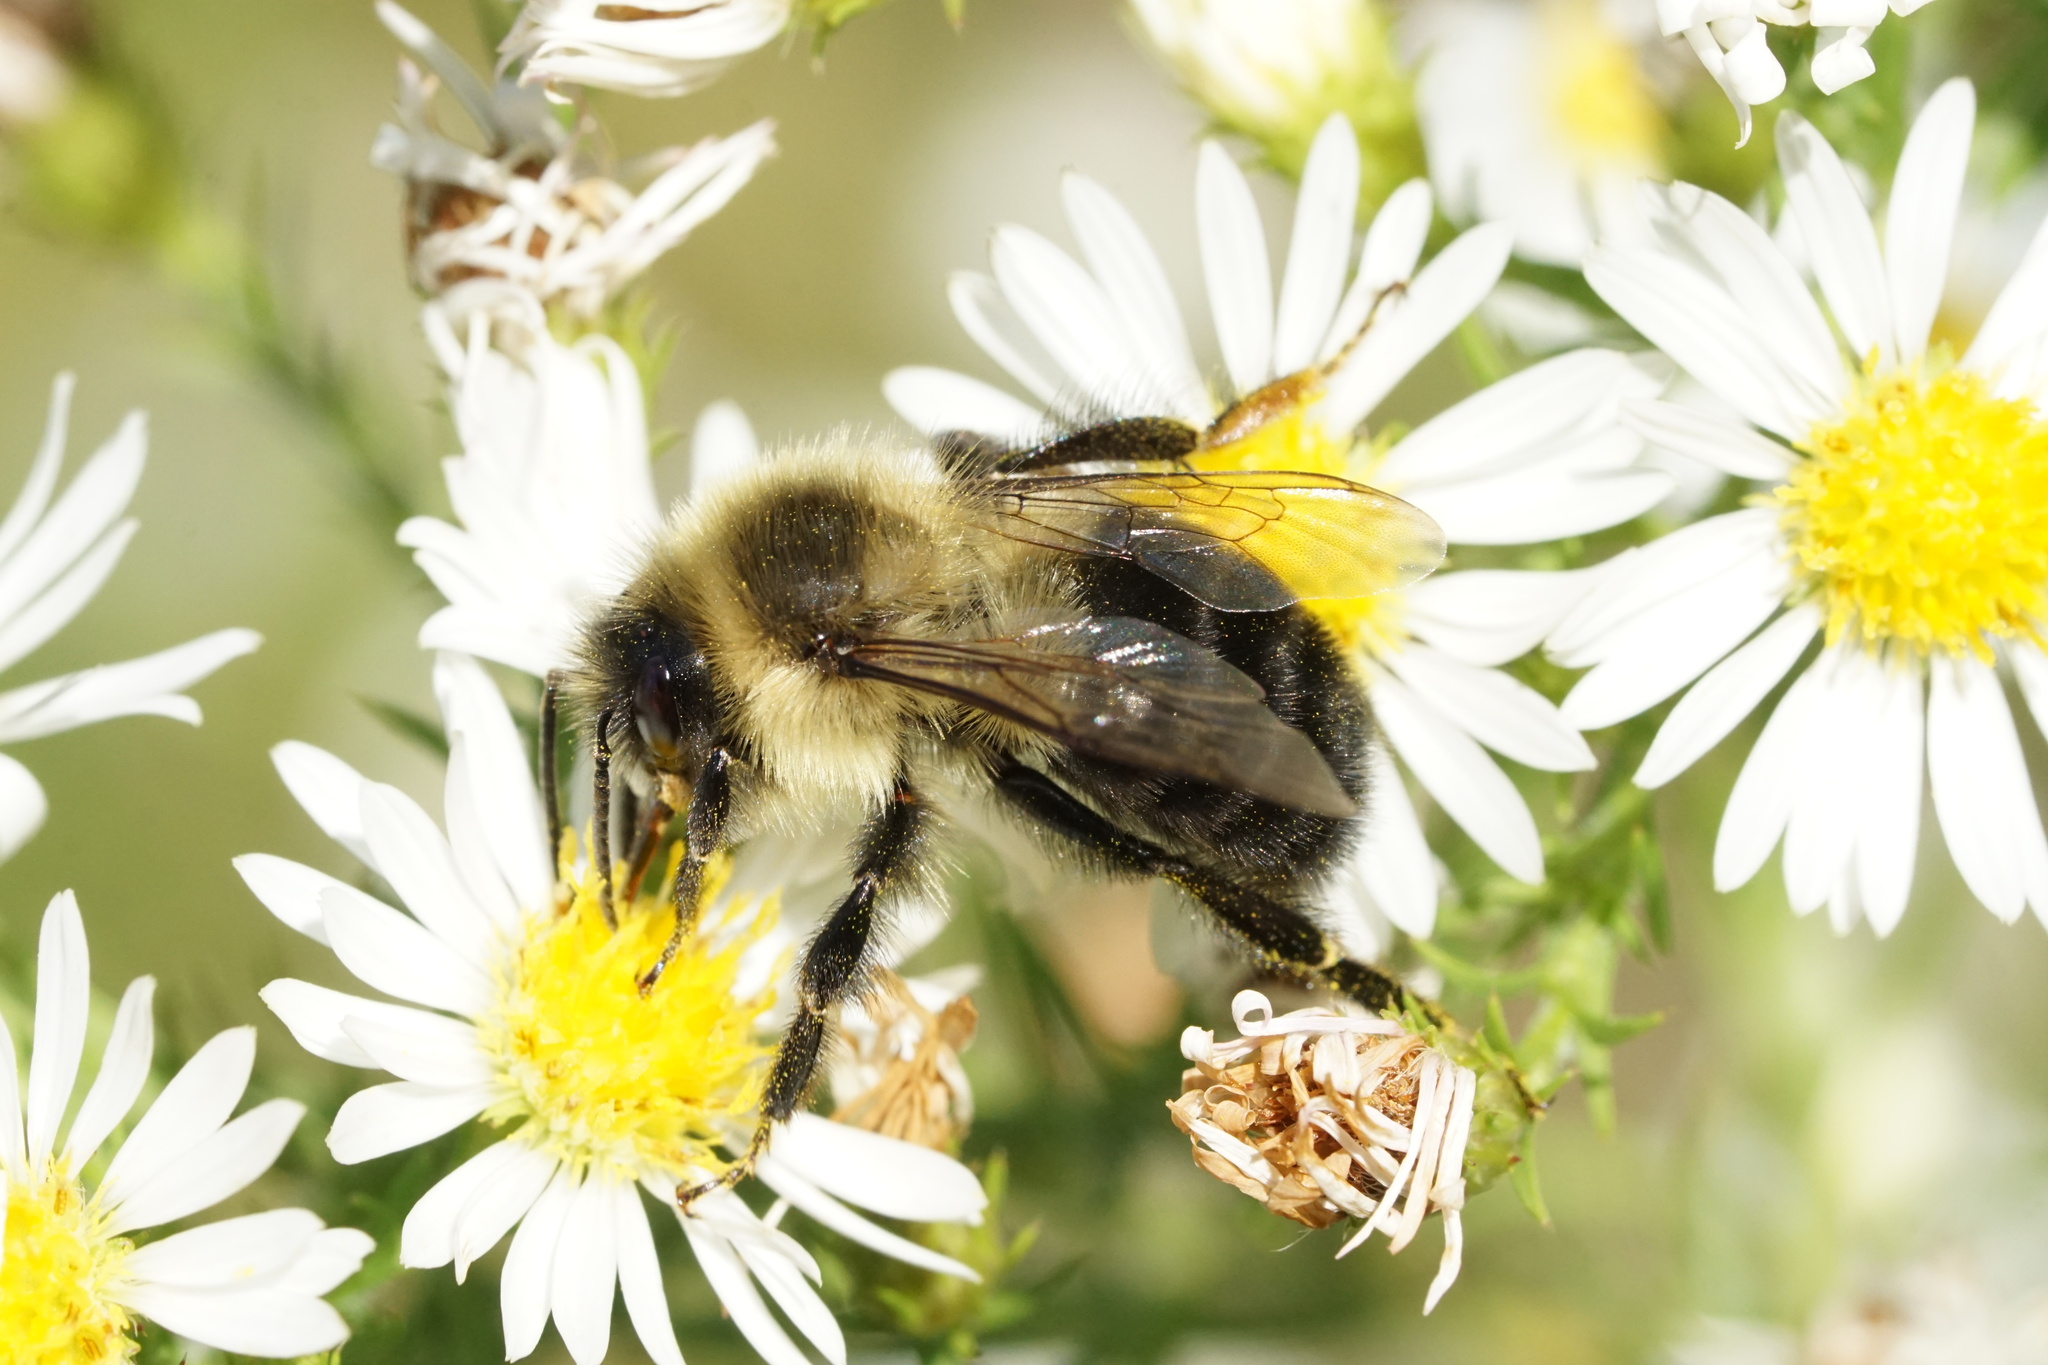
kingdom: Animalia
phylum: Arthropoda
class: Insecta
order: Hymenoptera
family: Apidae
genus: Bombus
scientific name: Bombus impatiens
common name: Common eastern bumble bee
